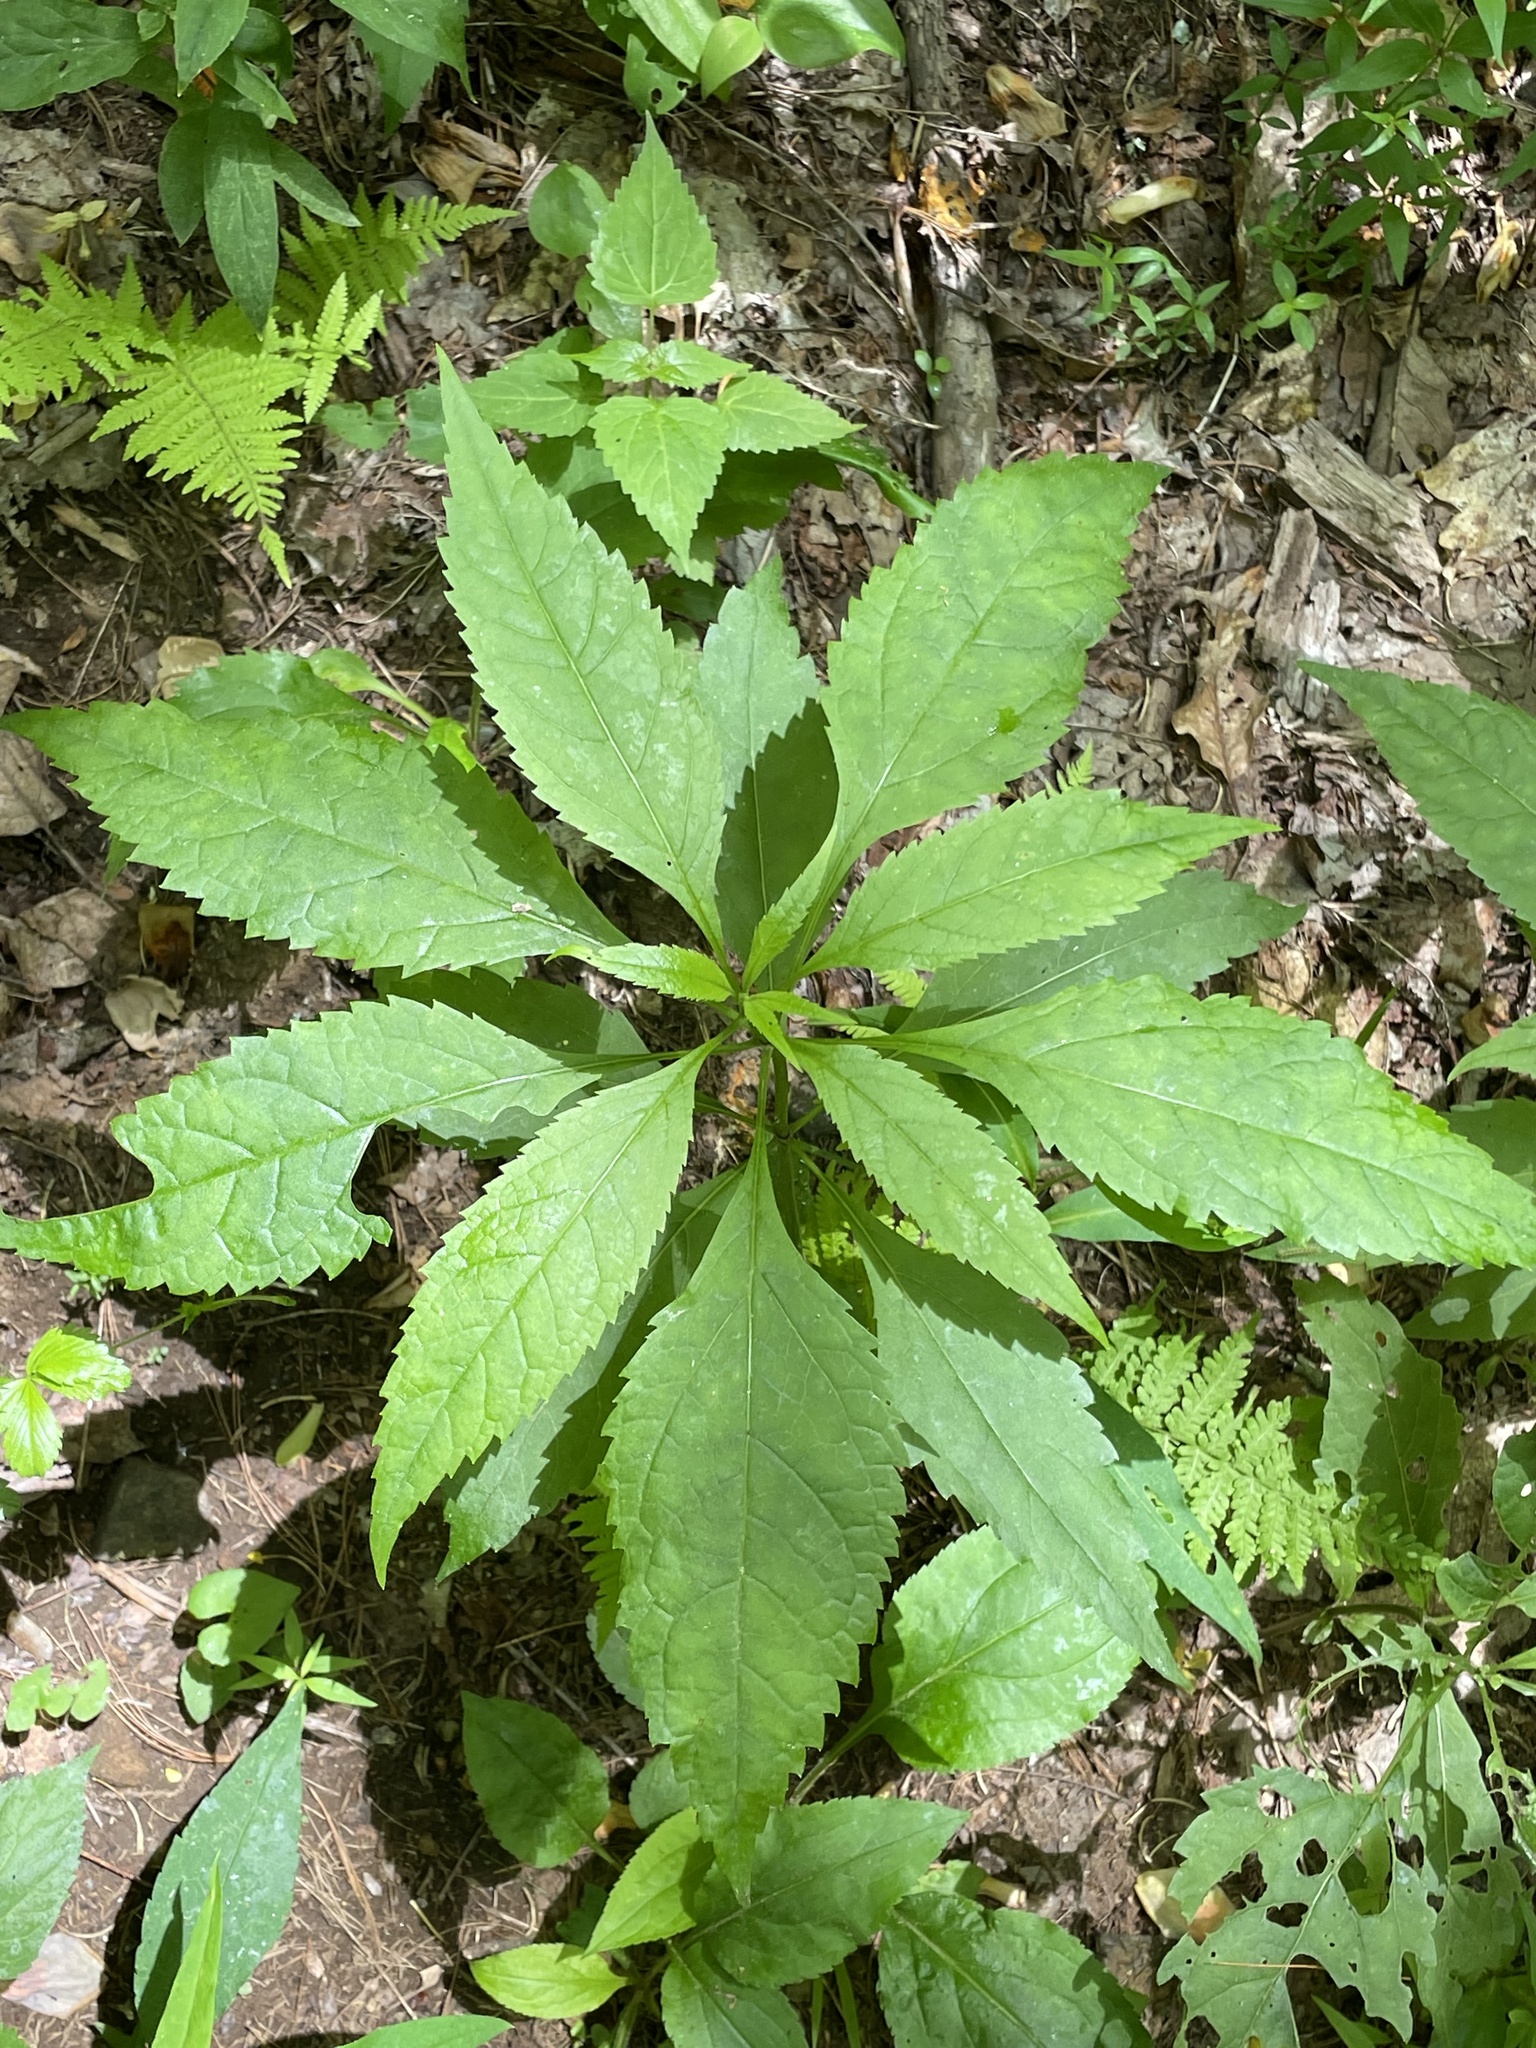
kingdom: Plantae
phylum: Tracheophyta
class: Magnoliopsida
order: Asterales
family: Asteraceae
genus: Eutrochium
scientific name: Eutrochium fistulosum
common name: Trumpetweed
